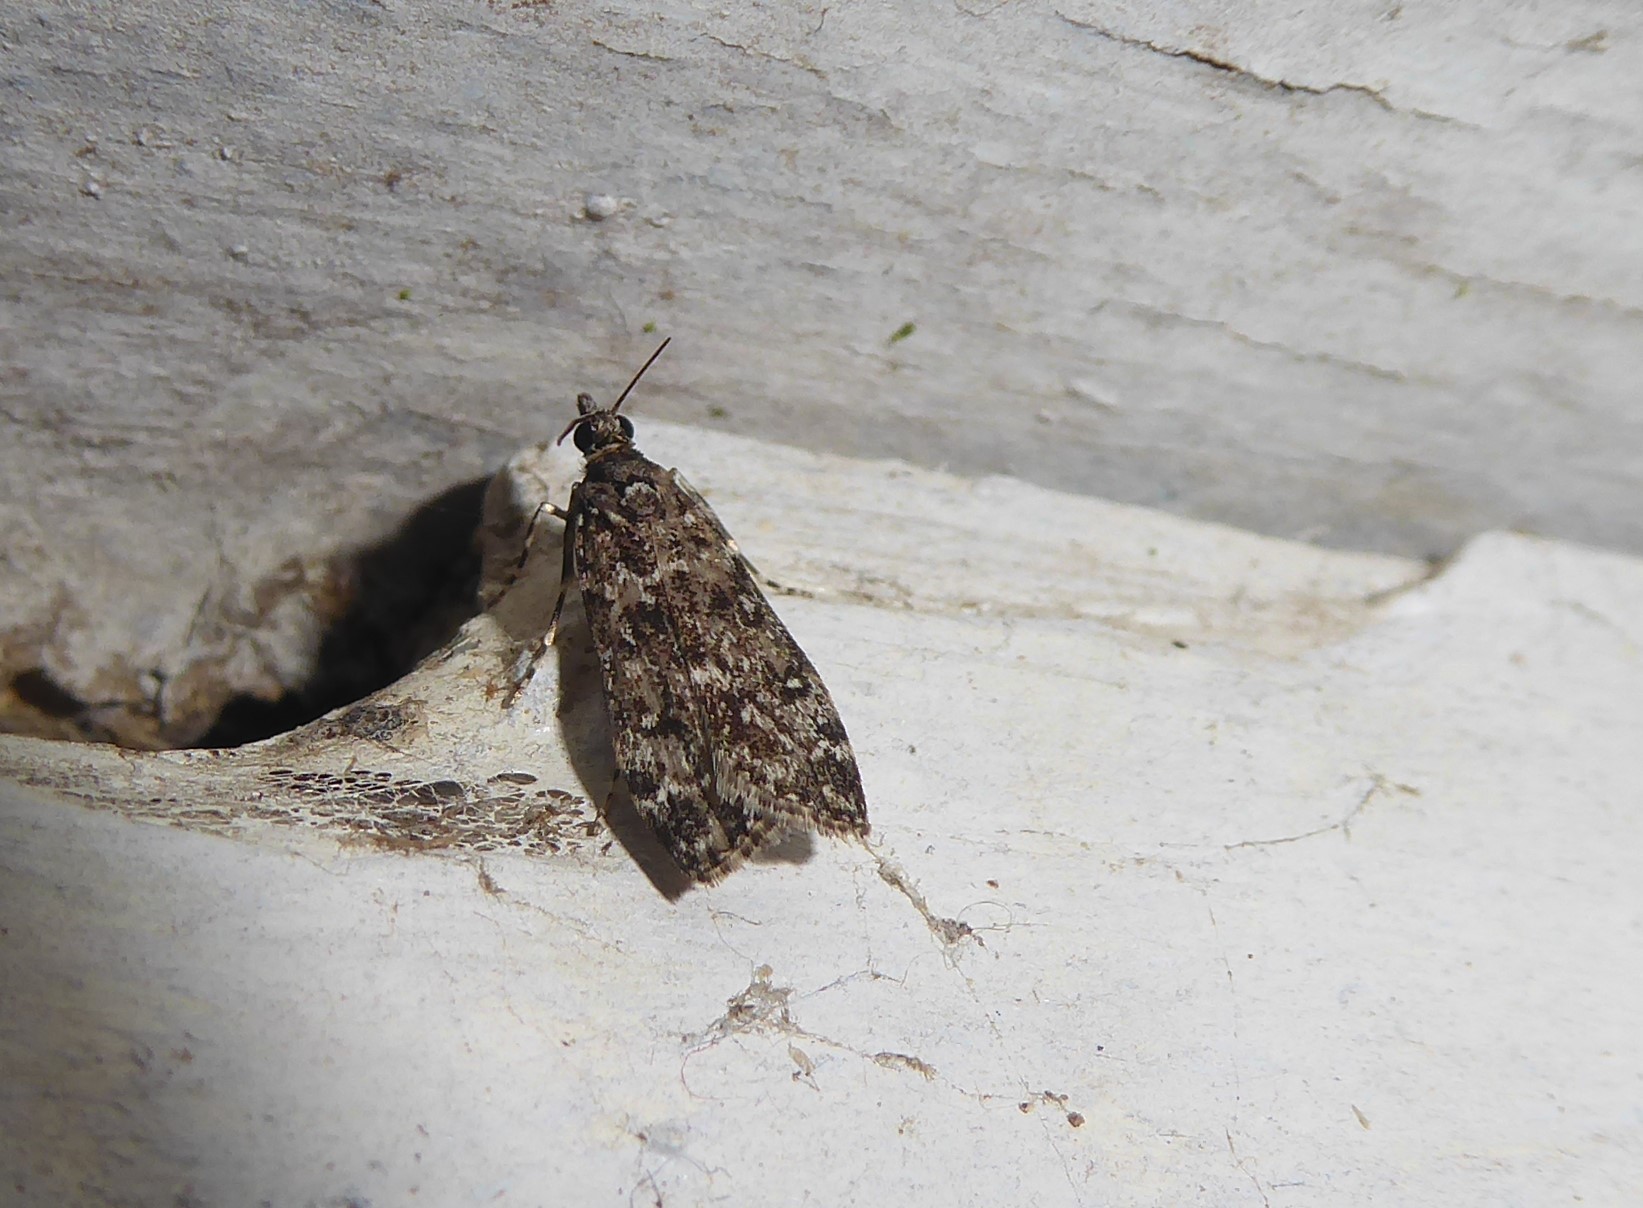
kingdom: Animalia
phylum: Arthropoda
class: Insecta
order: Lepidoptera
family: Crambidae
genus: Eudonia
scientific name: Eudonia philerga
